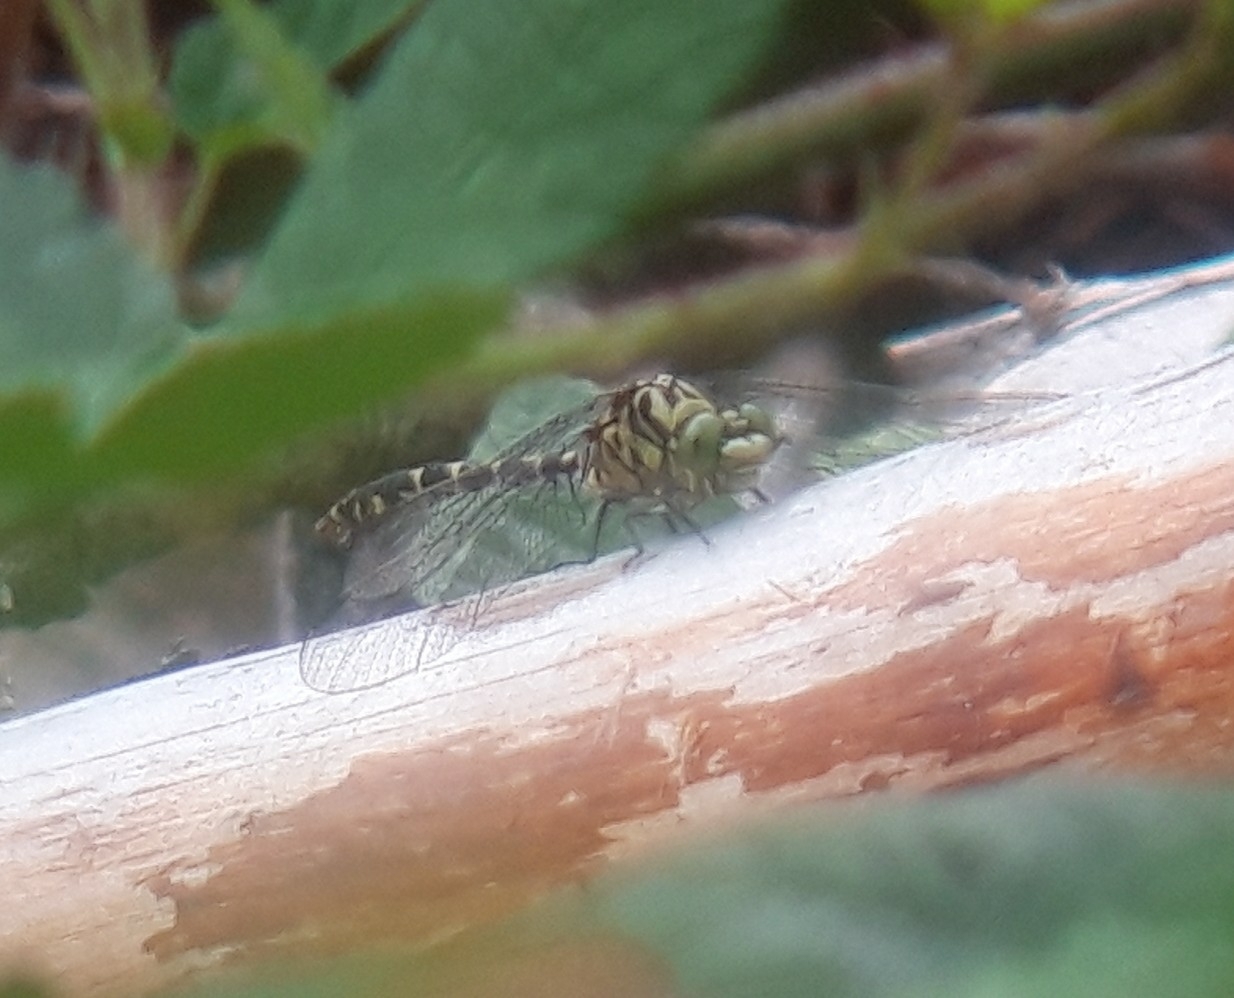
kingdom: Animalia
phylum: Arthropoda
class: Insecta
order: Odonata
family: Gomphidae
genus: Onychogomphus
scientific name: Onychogomphus forcipatus
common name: Small pincertail
